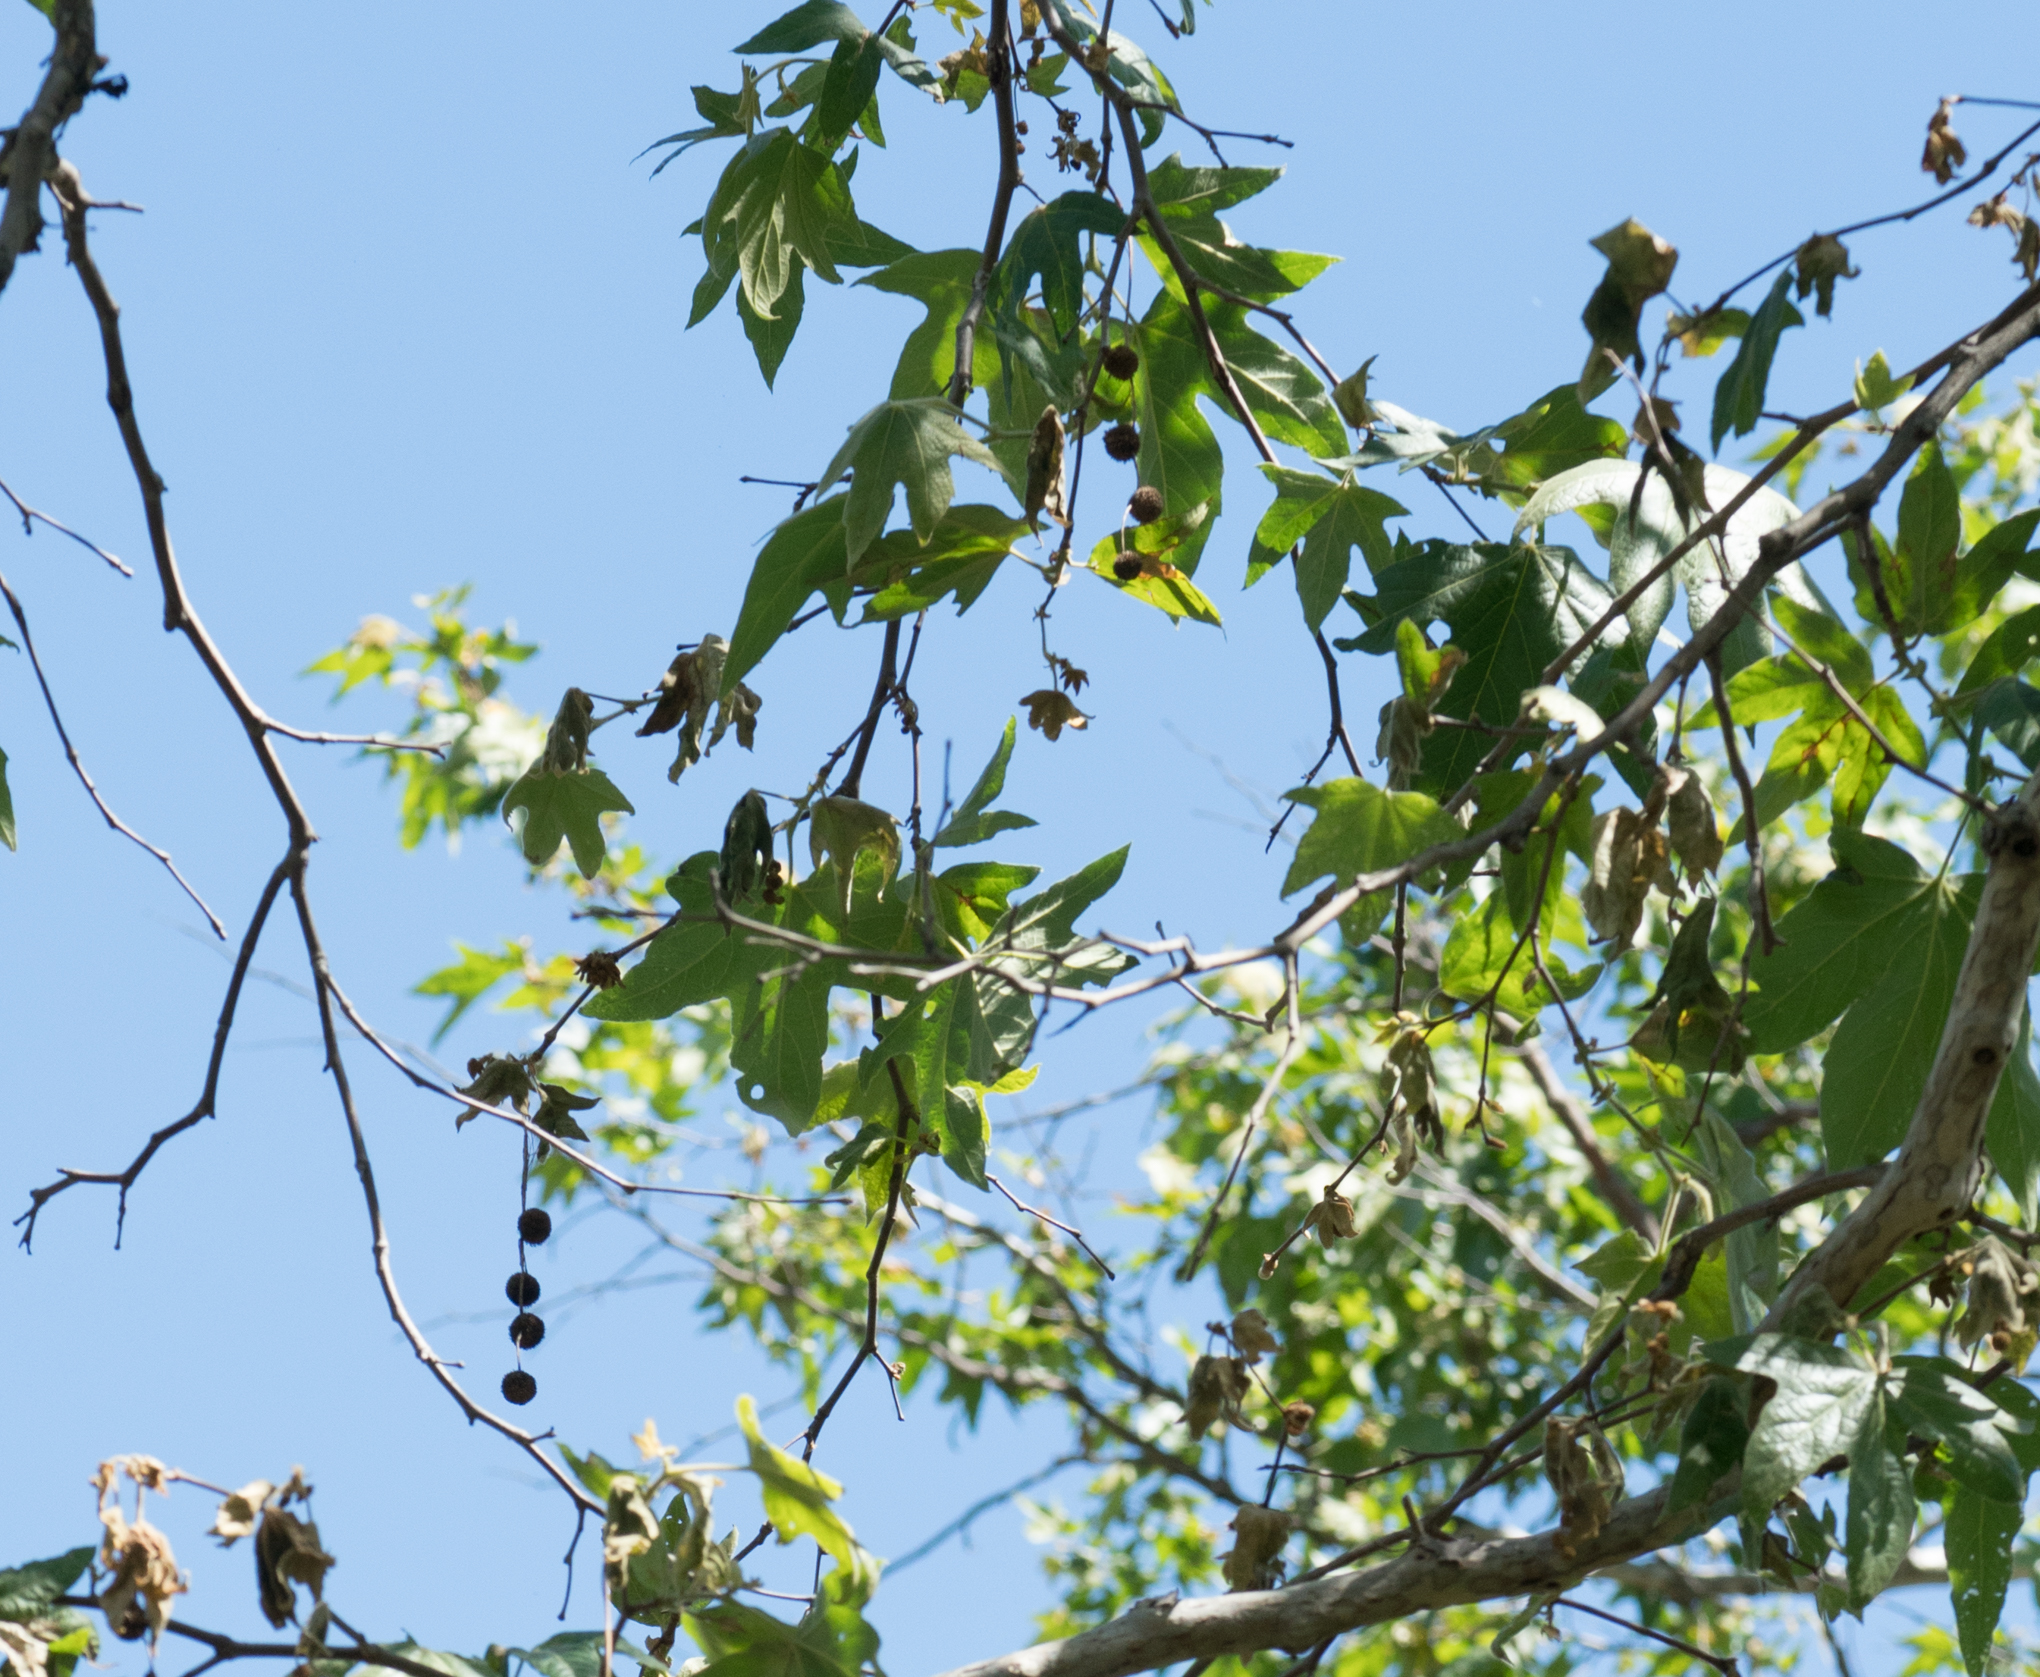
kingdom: Plantae
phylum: Tracheophyta
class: Magnoliopsida
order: Proteales
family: Platanaceae
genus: Platanus
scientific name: Platanus racemosa
